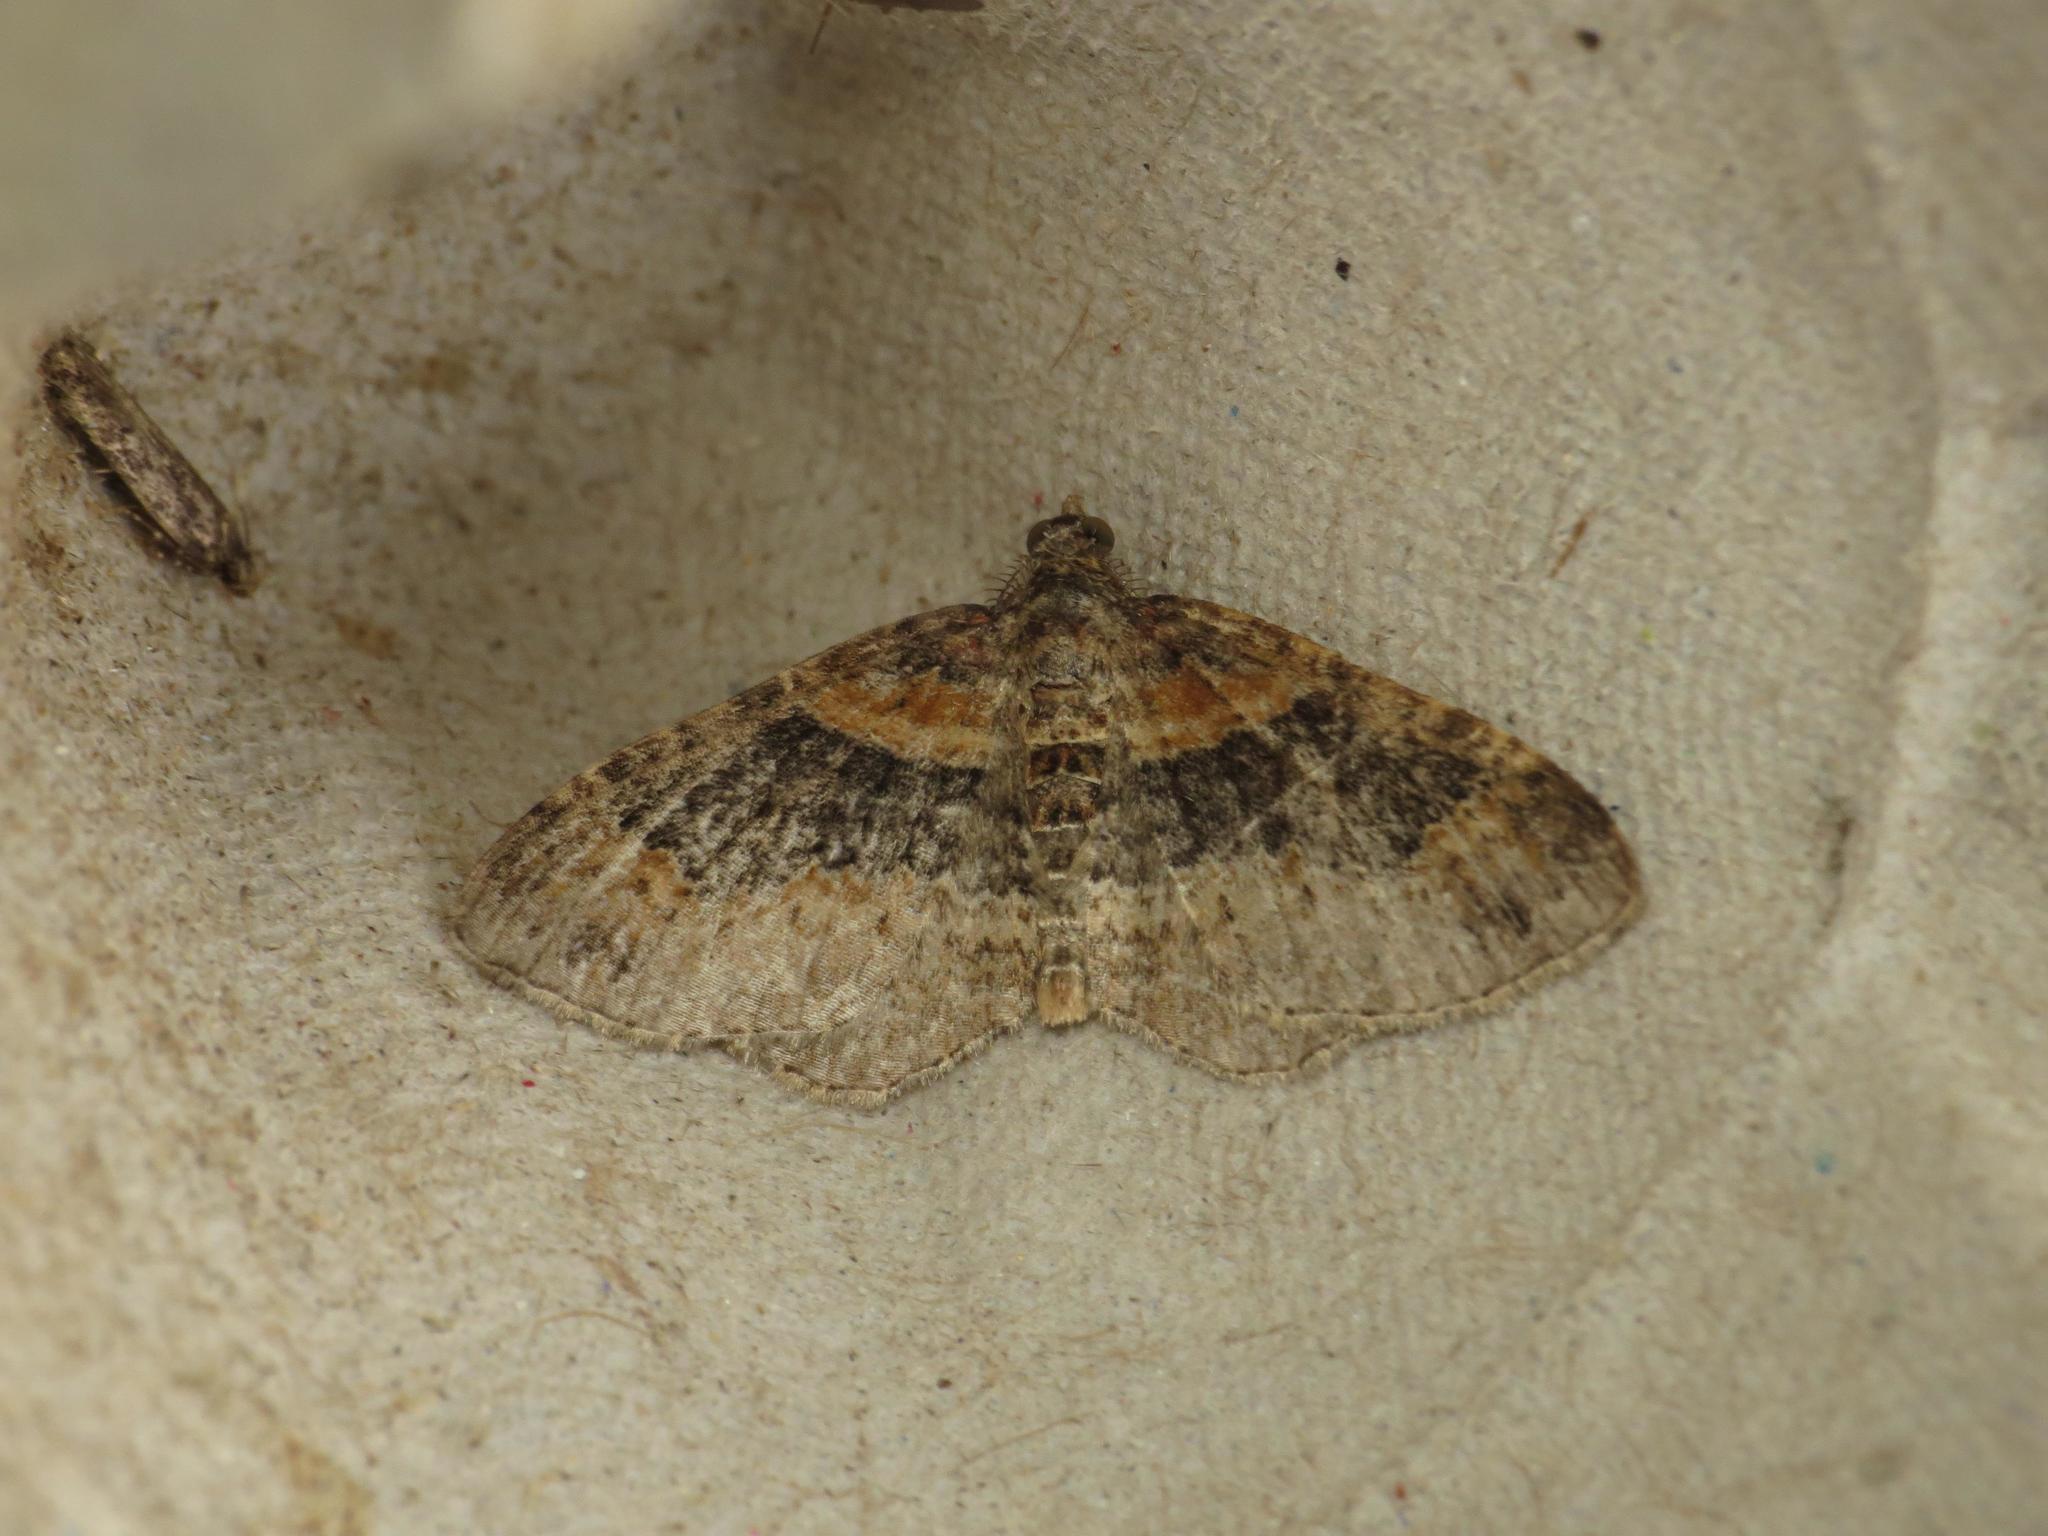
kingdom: Animalia
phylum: Arthropoda
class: Insecta
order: Lepidoptera
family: Geometridae
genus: Xanthorhoe
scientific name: Xanthorhoe ferrugata
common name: Dark-barred twin-spot carpet
